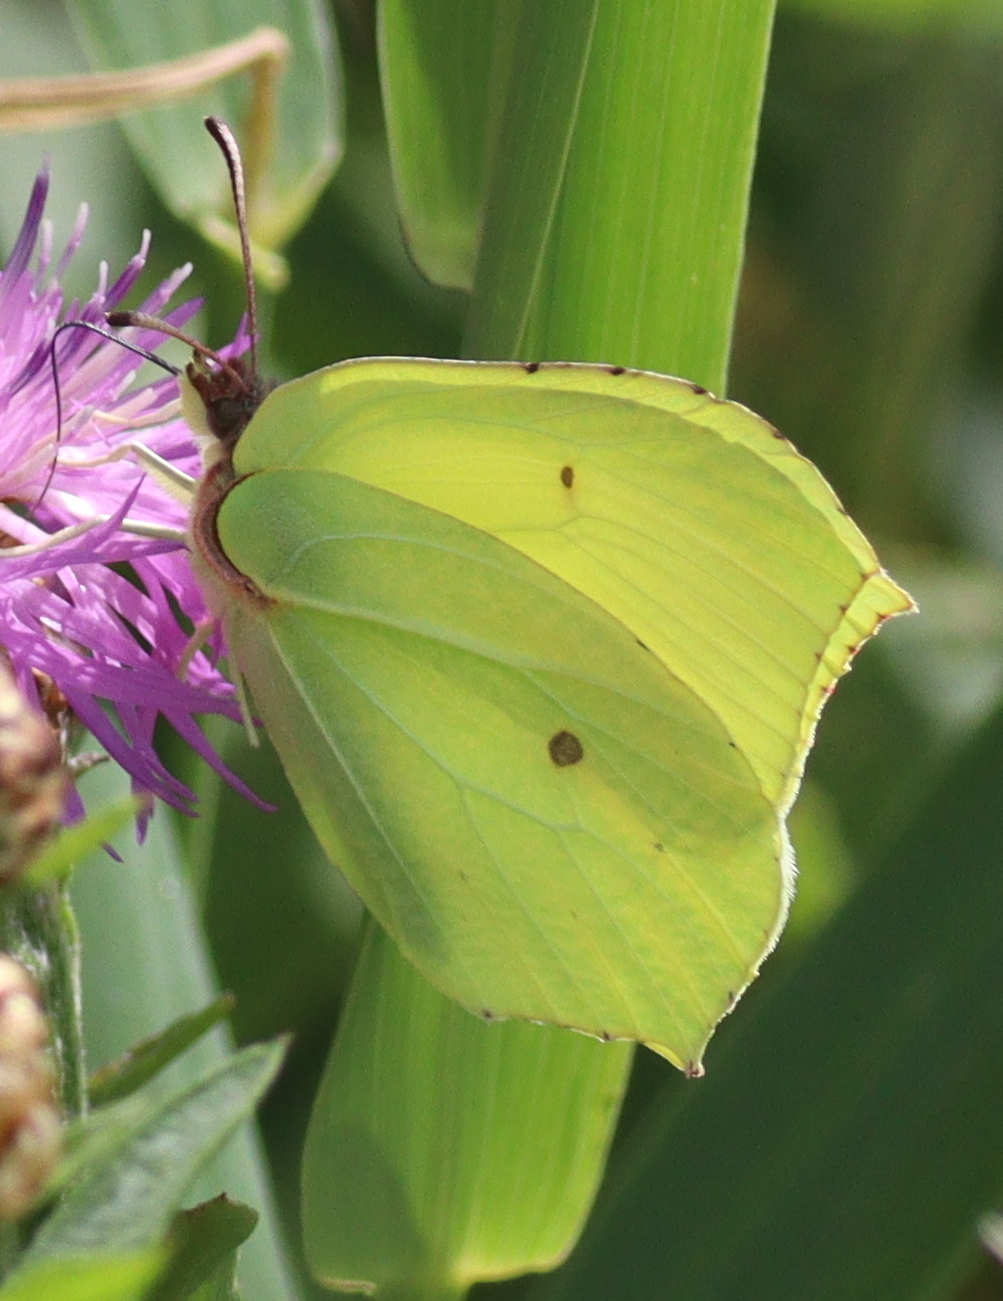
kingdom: Animalia
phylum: Arthropoda
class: Insecta
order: Lepidoptera
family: Pieridae
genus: Gonepteryx
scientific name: Gonepteryx rhamni
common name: Brimstone
